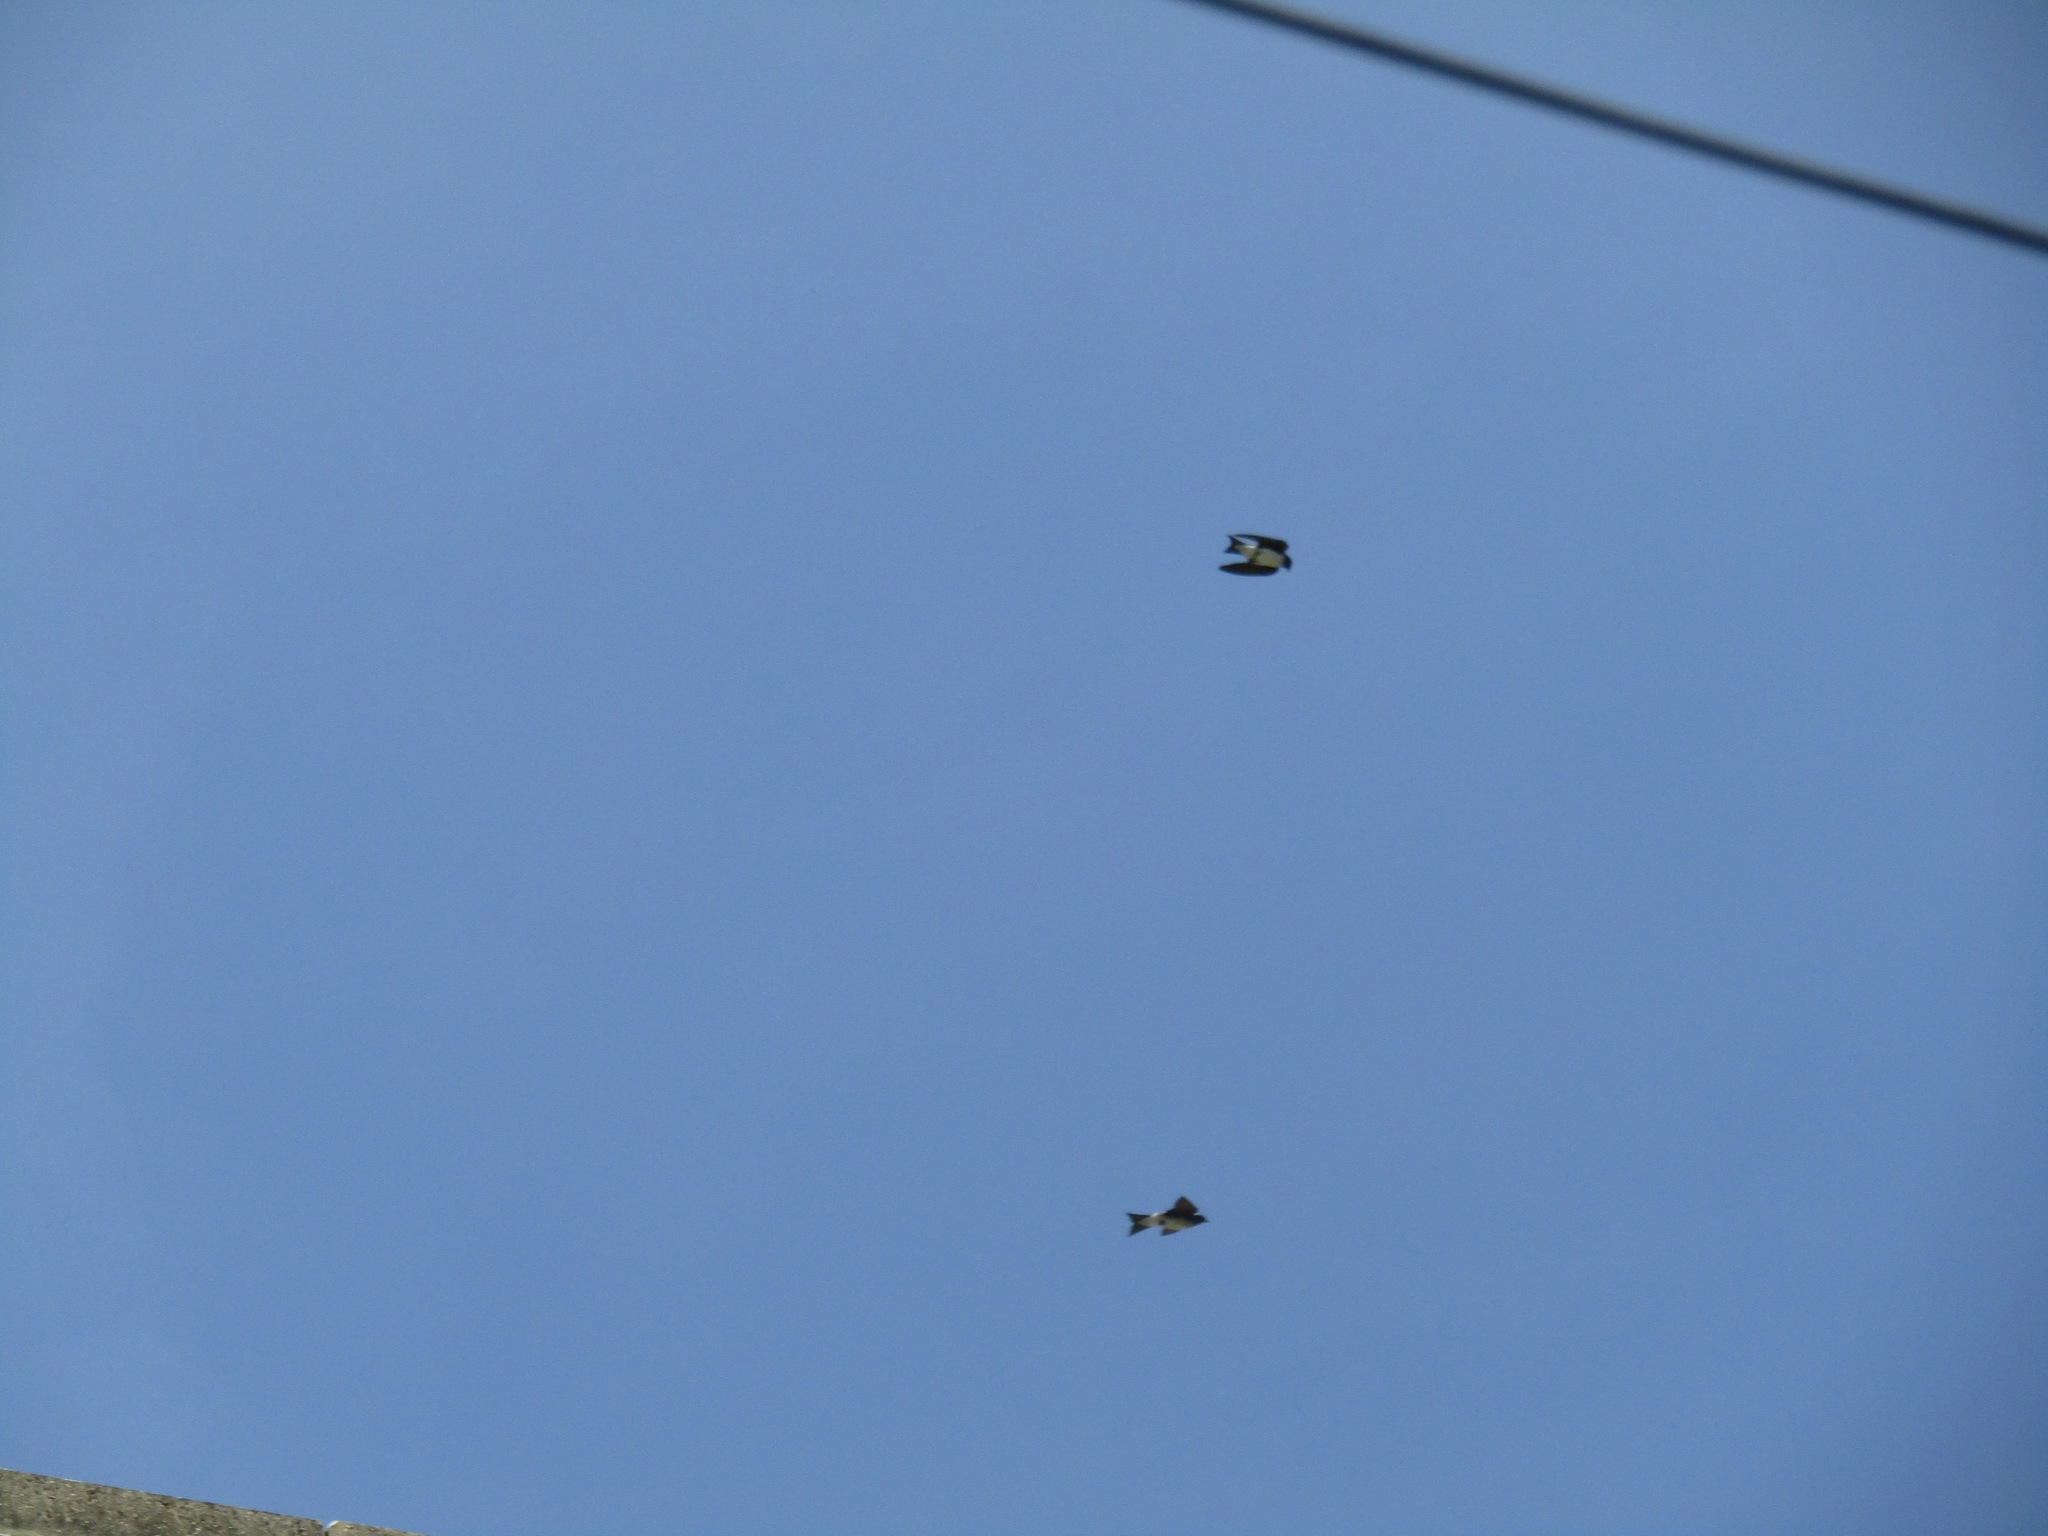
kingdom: Animalia
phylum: Chordata
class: Aves
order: Passeriformes
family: Hirundinidae
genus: Progne
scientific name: Progne tapera
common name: Brown-chested martin
